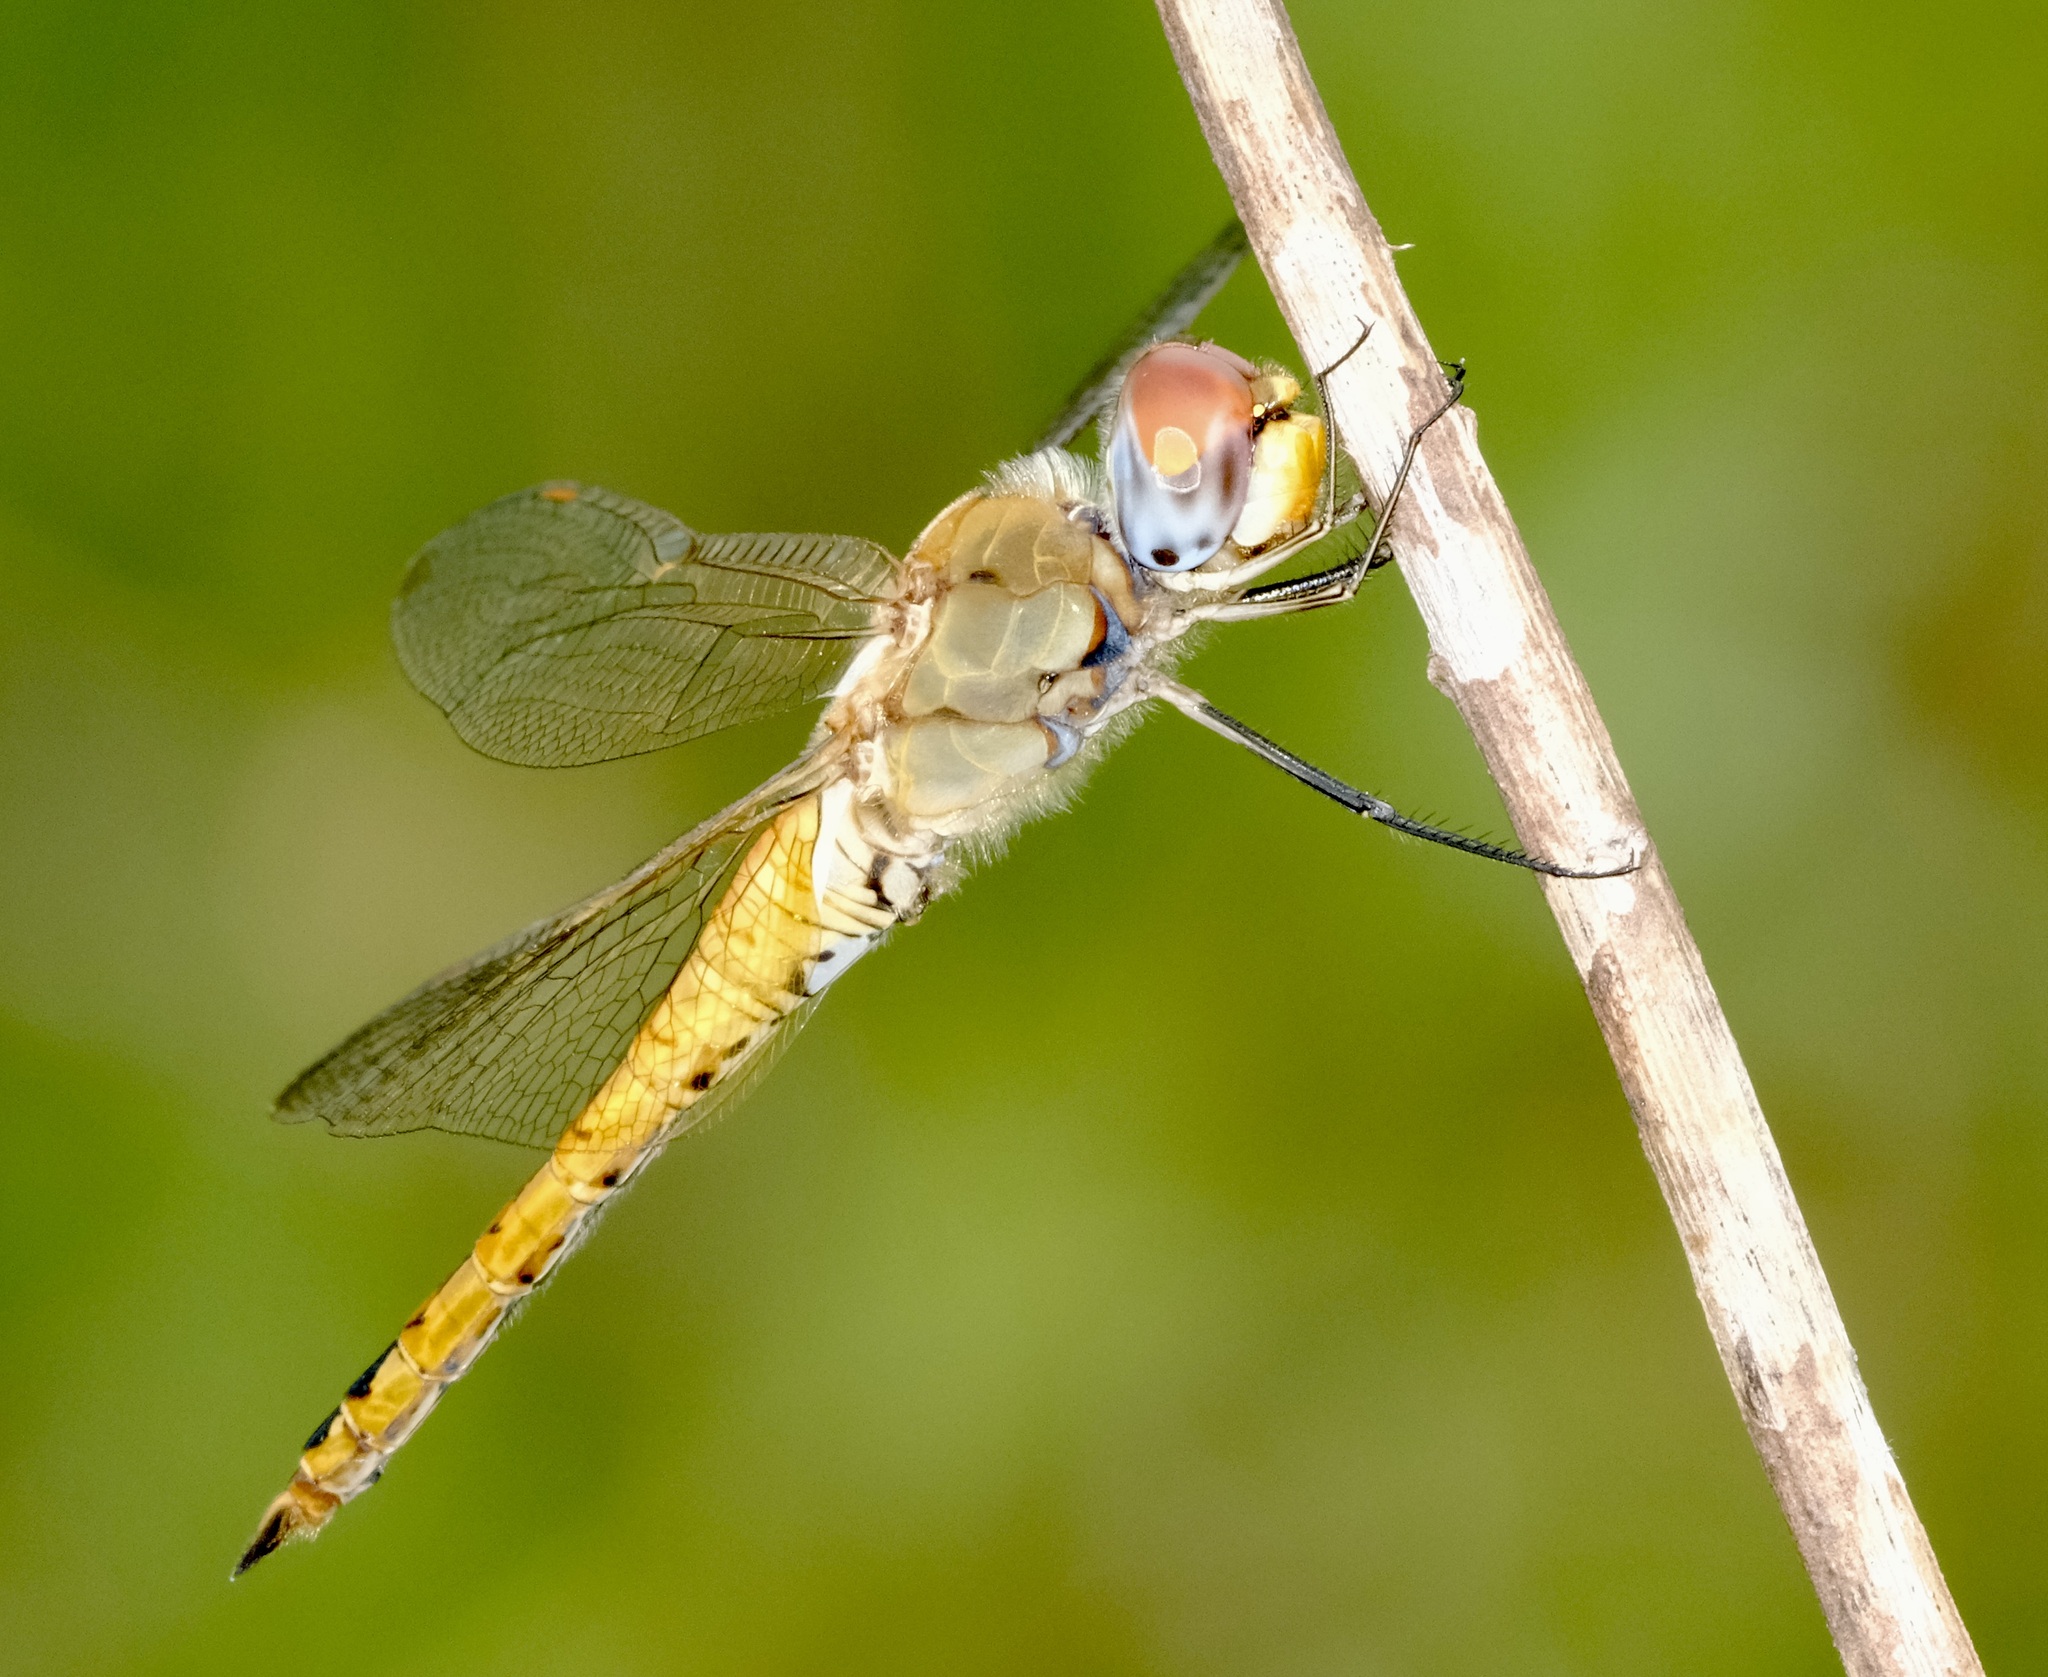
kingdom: Animalia
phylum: Arthropoda
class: Insecta
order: Odonata
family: Libellulidae
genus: Pantala
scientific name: Pantala flavescens
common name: Wandering glider
